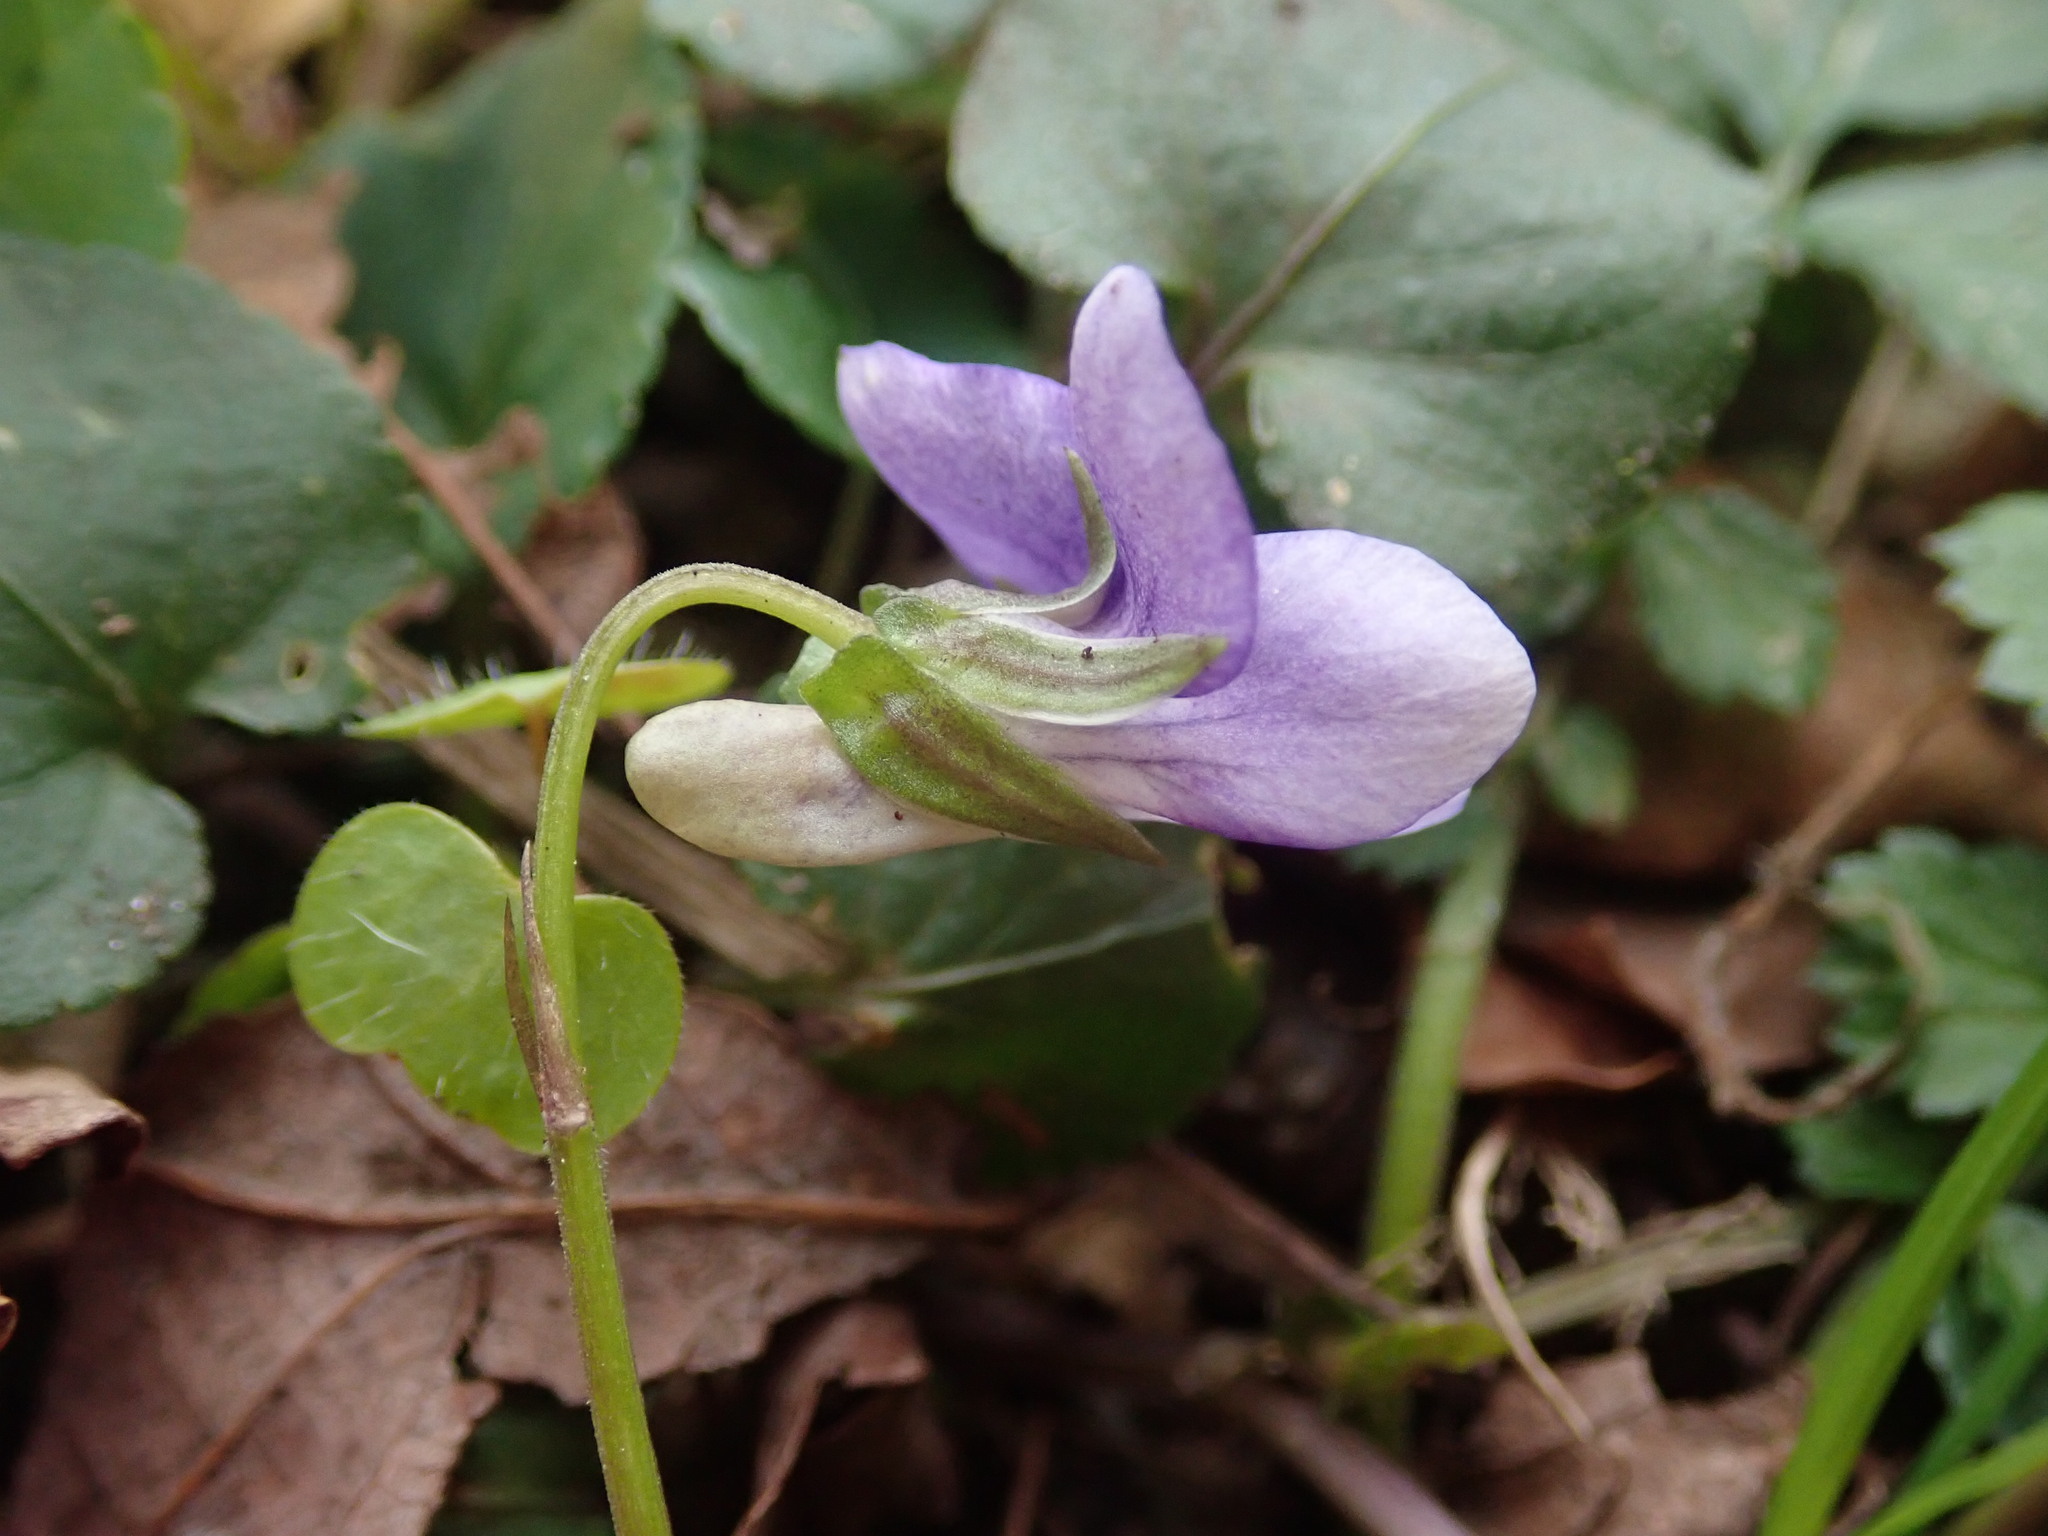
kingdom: Plantae
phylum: Tracheophyta
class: Magnoliopsida
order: Malpighiales
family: Violaceae
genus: Viola
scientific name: Viola riviniana
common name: Common dog-violet
